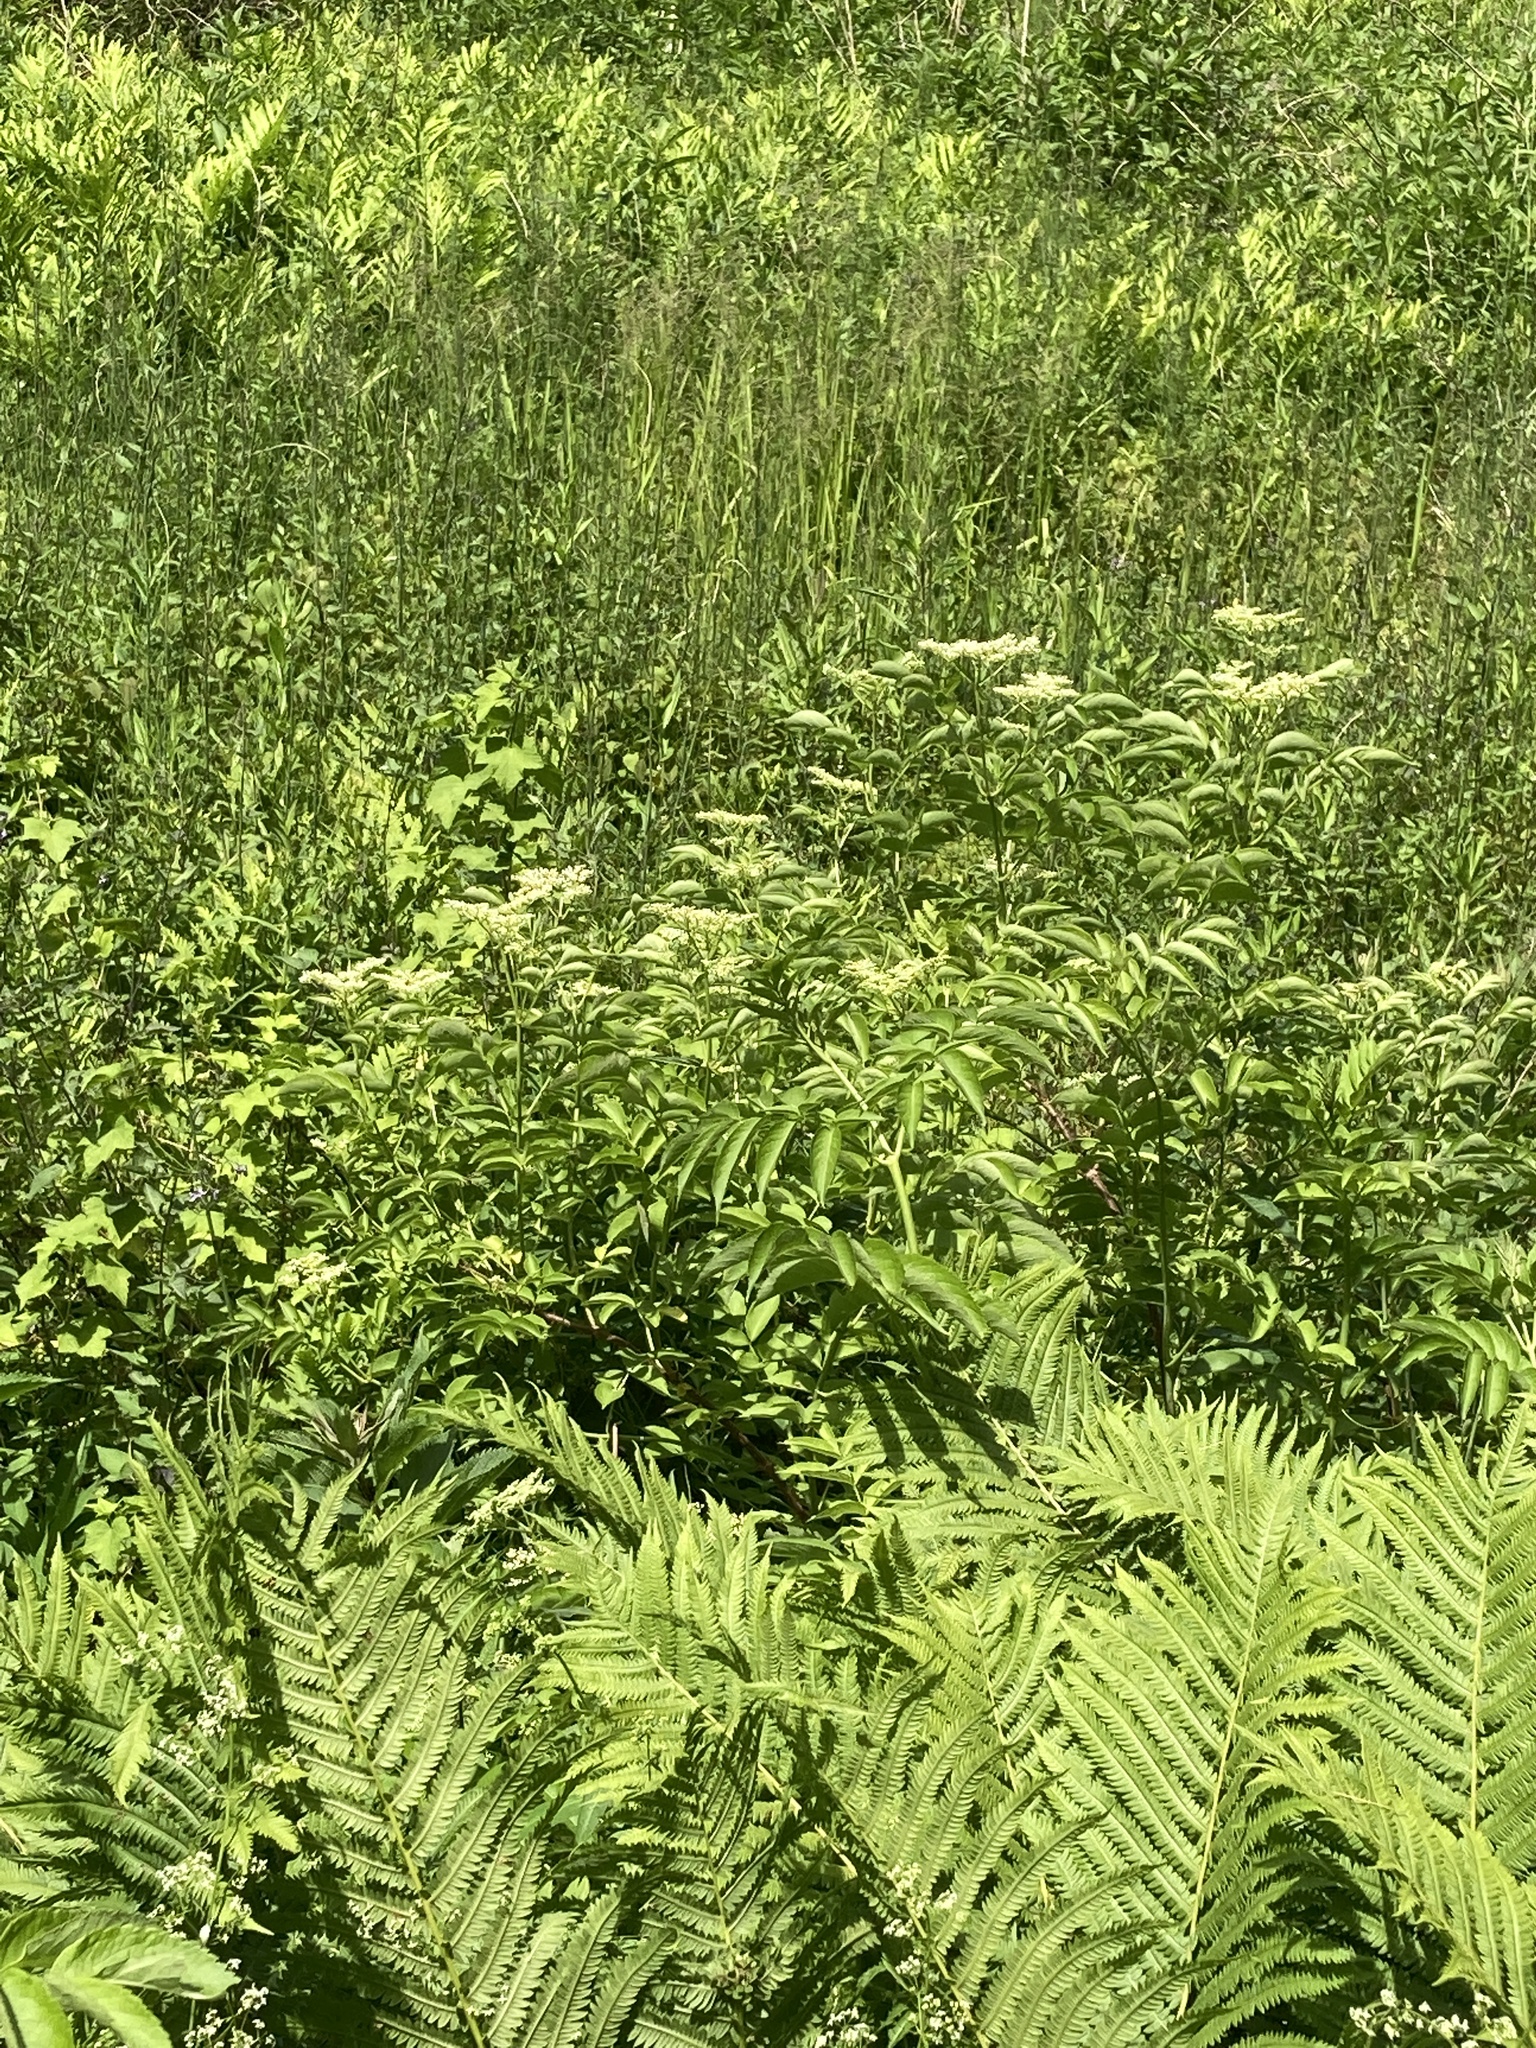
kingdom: Plantae
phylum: Tracheophyta
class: Magnoliopsida
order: Dipsacales
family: Viburnaceae
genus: Sambucus
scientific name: Sambucus canadensis
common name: American elder
